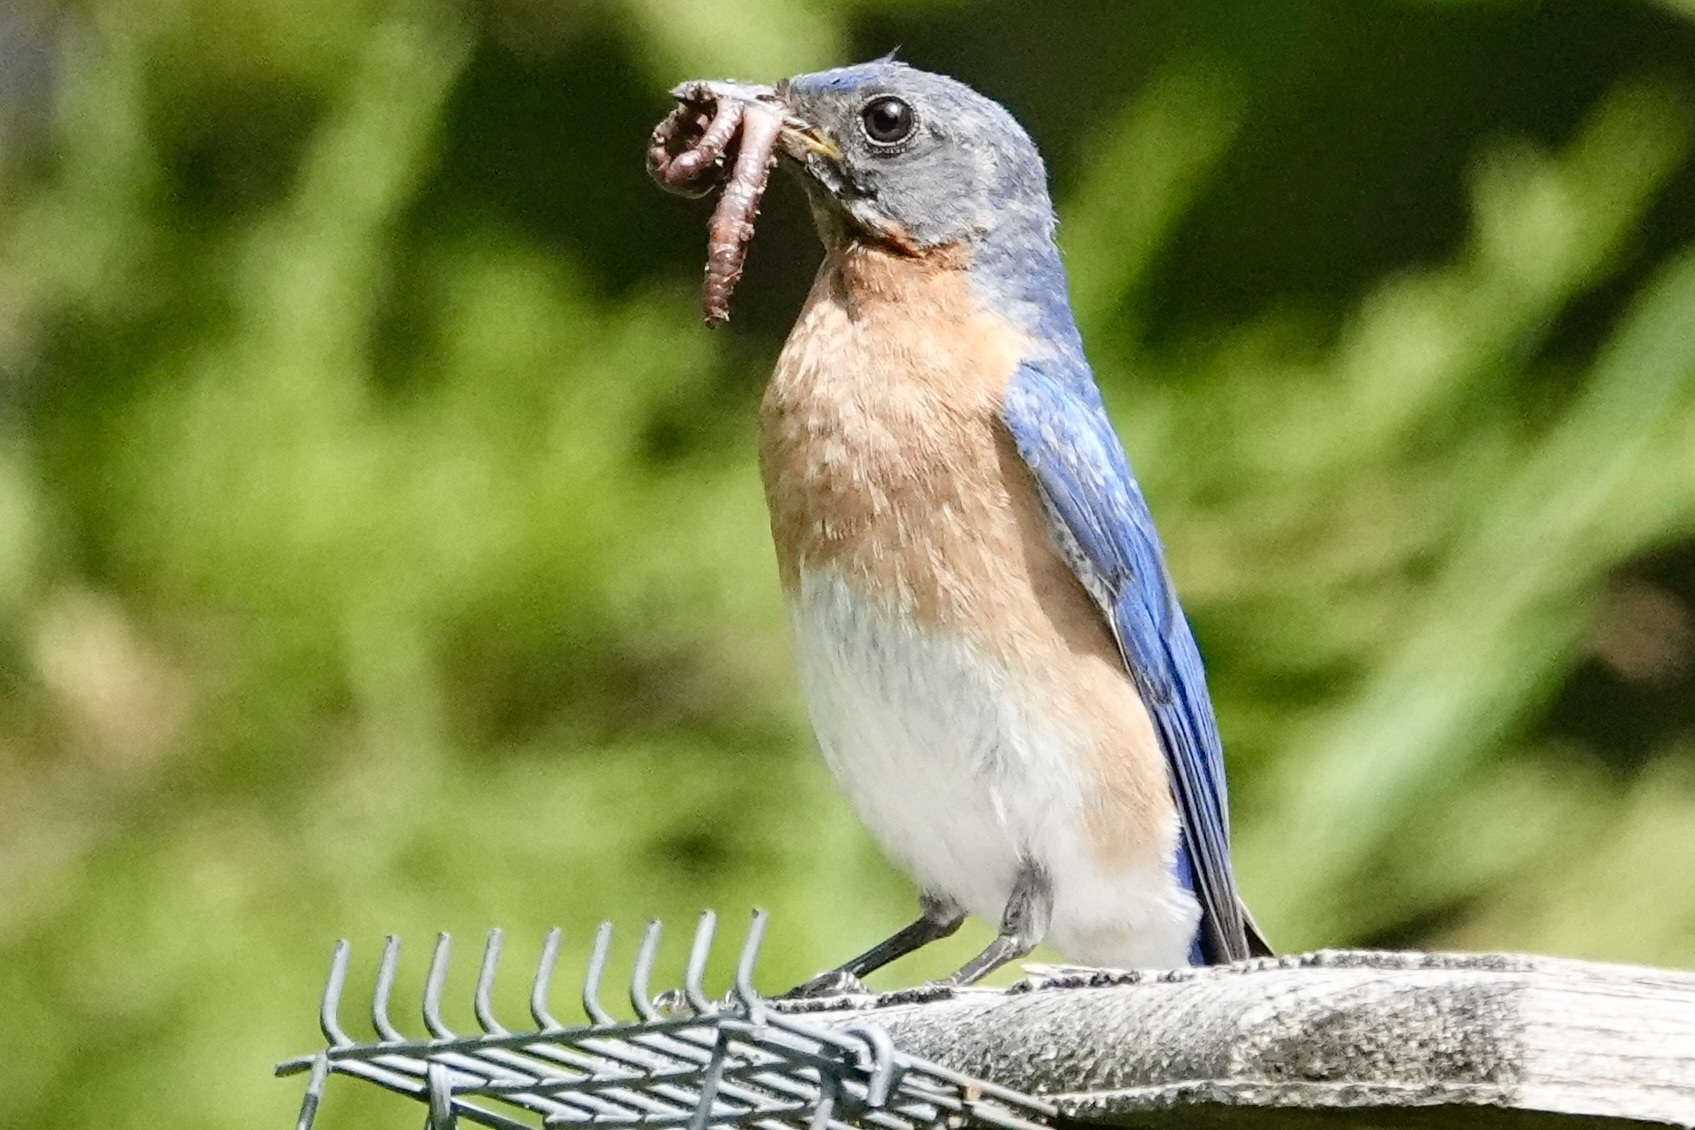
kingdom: Animalia
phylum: Chordata
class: Aves
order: Passeriformes
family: Turdidae
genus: Sialia
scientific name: Sialia sialis
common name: Eastern bluebird
